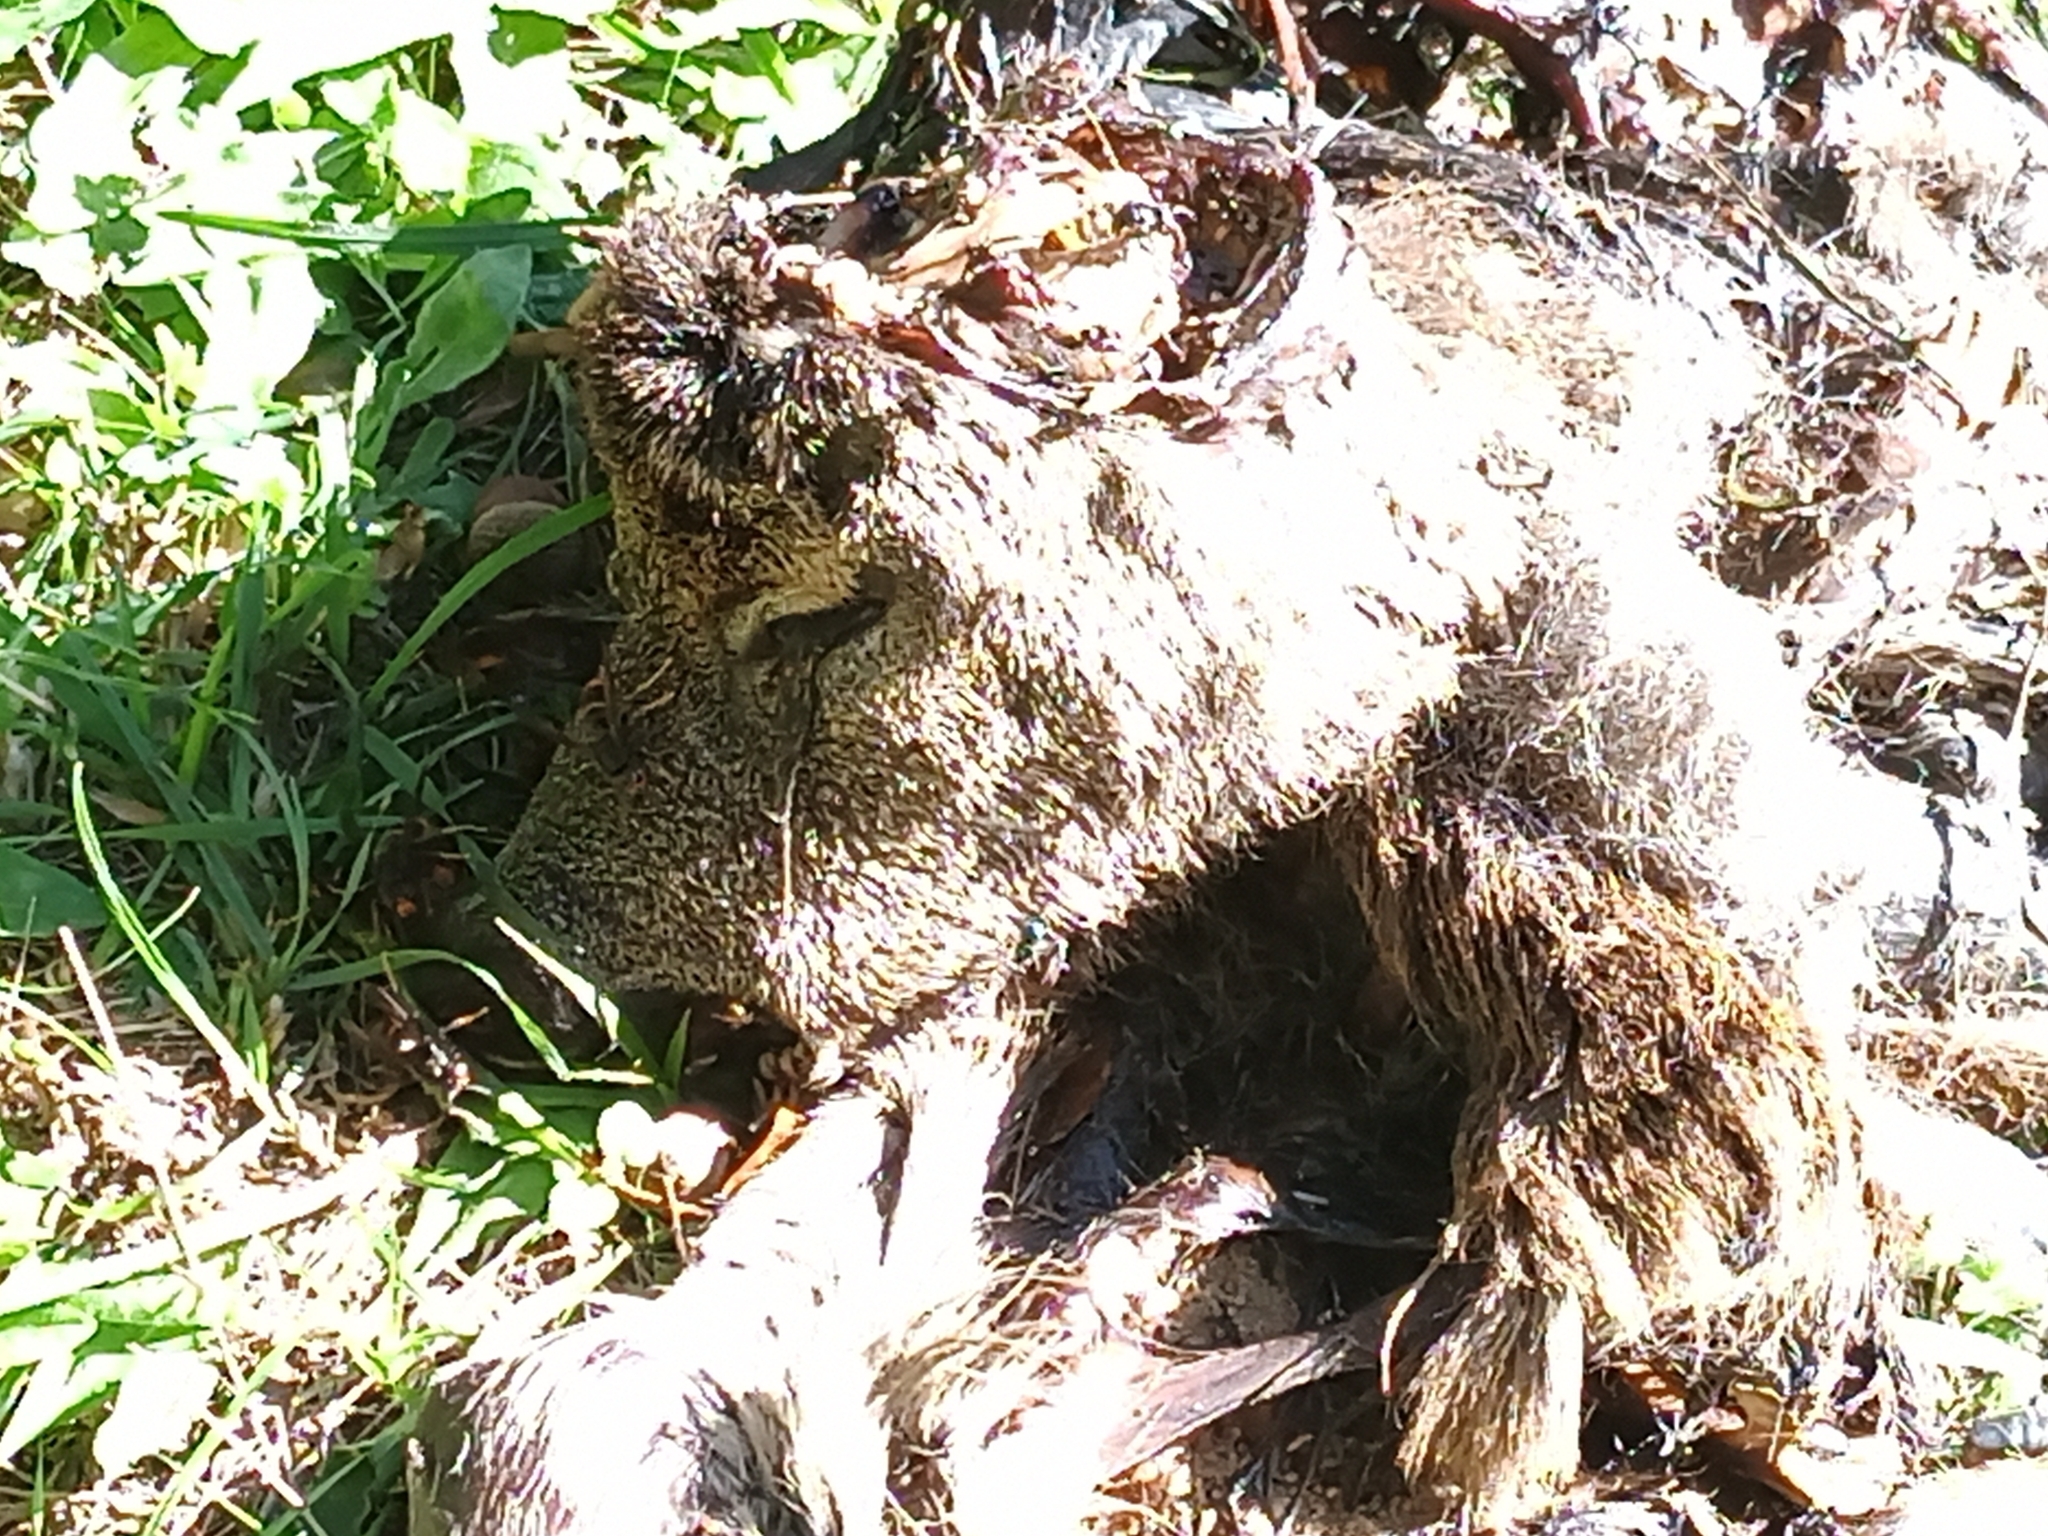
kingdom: Animalia
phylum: Chordata
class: Mammalia
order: Artiodactyla
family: Cervidae
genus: Capreolus
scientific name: Capreolus capreolus
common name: Western roe deer
